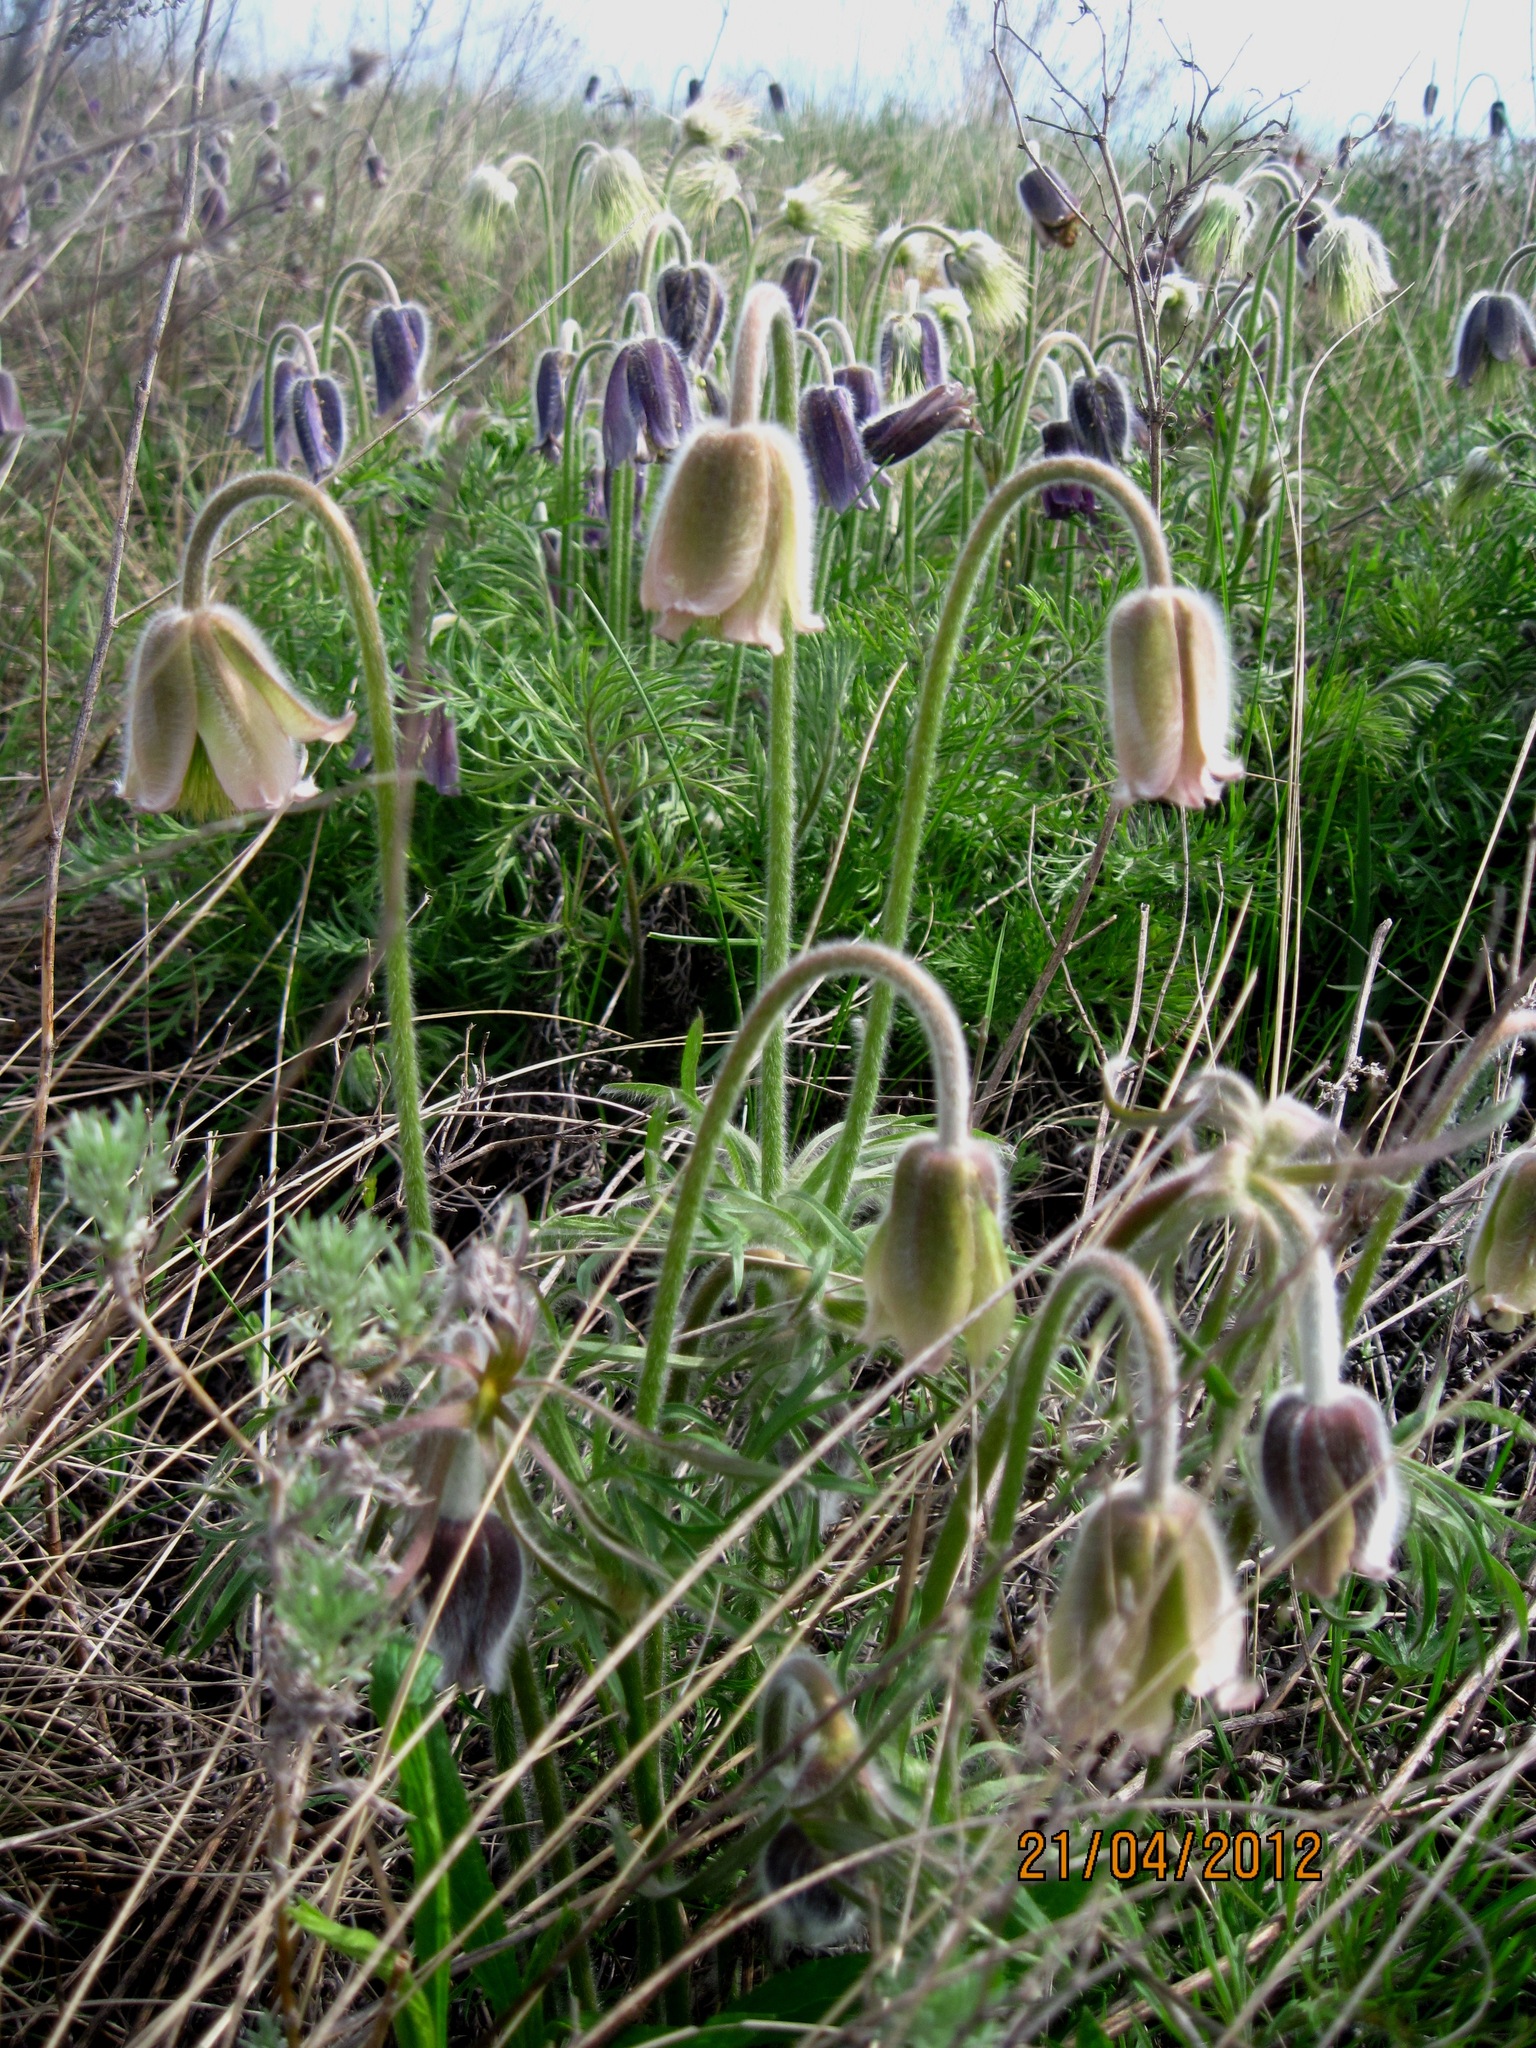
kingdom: Plantae
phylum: Tracheophyta
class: Magnoliopsida
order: Ranunculales
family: Ranunculaceae
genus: Pulsatilla
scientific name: Pulsatilla pratensis
